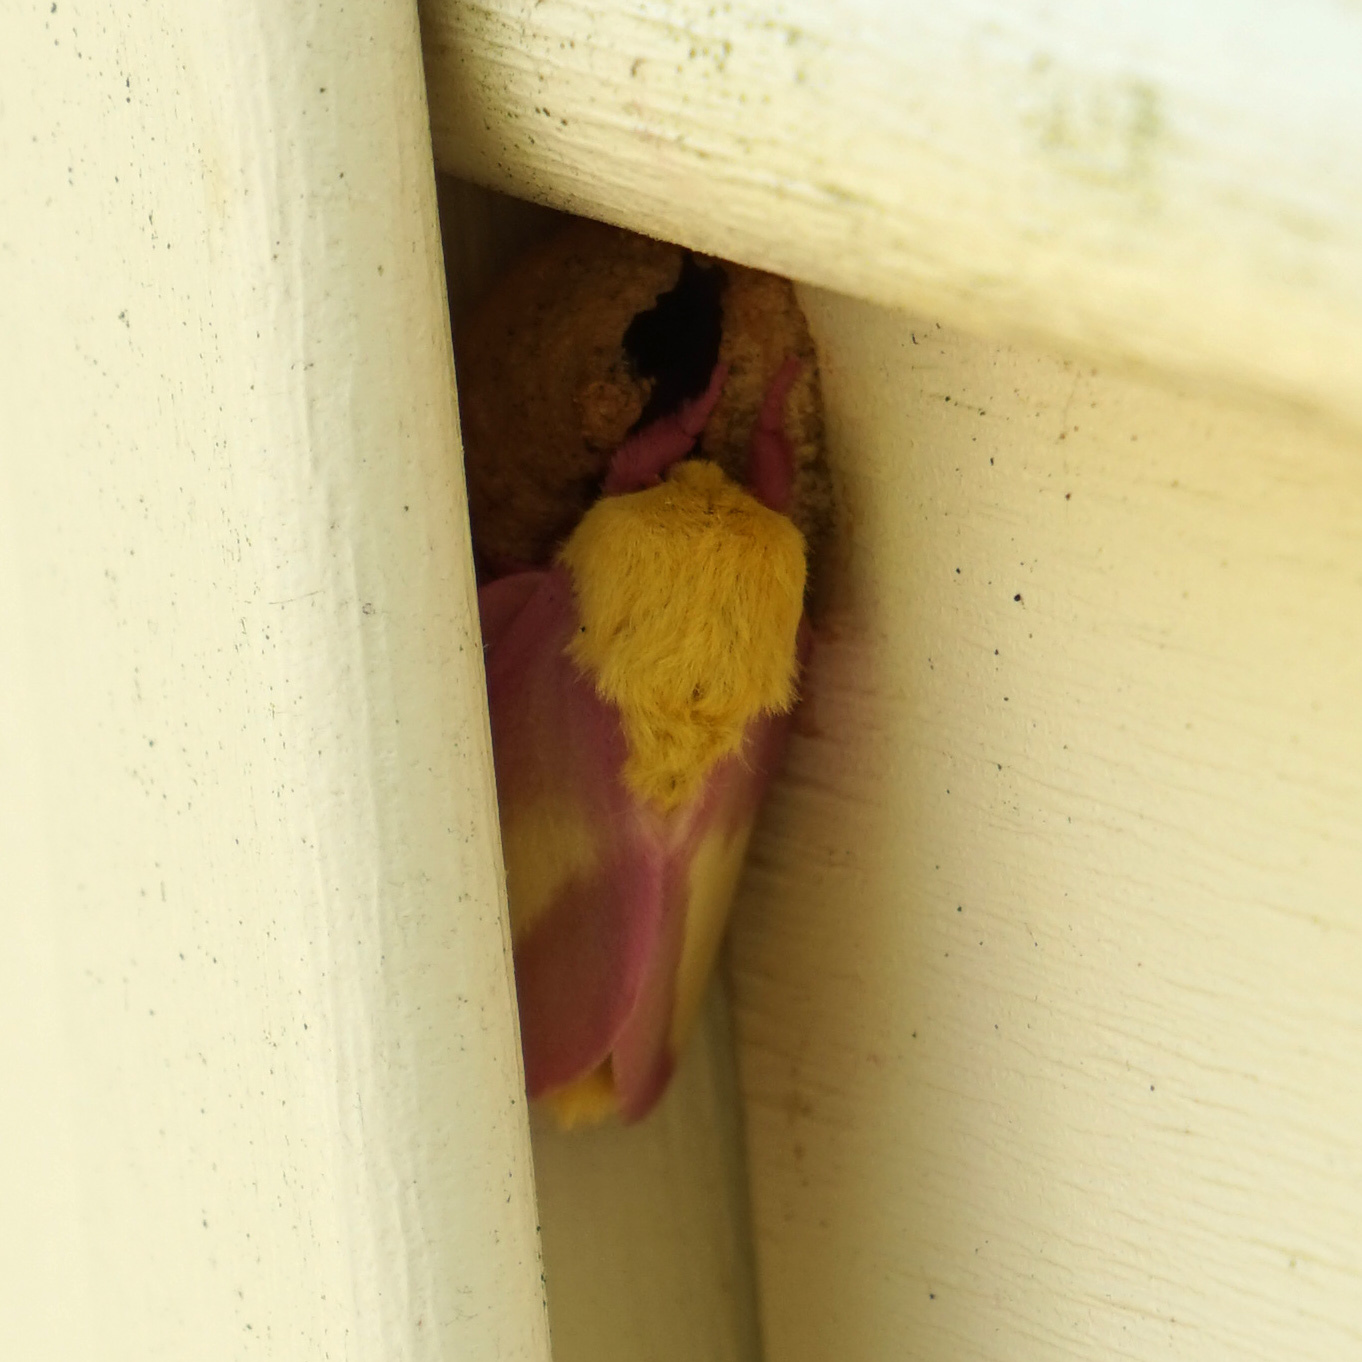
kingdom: Animalia
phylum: Arthropoda
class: Insecta
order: Lepidoptera
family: Saturniidae
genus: Dryocampa
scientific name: Dryocampa rubicunda
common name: Rosy maple moth
